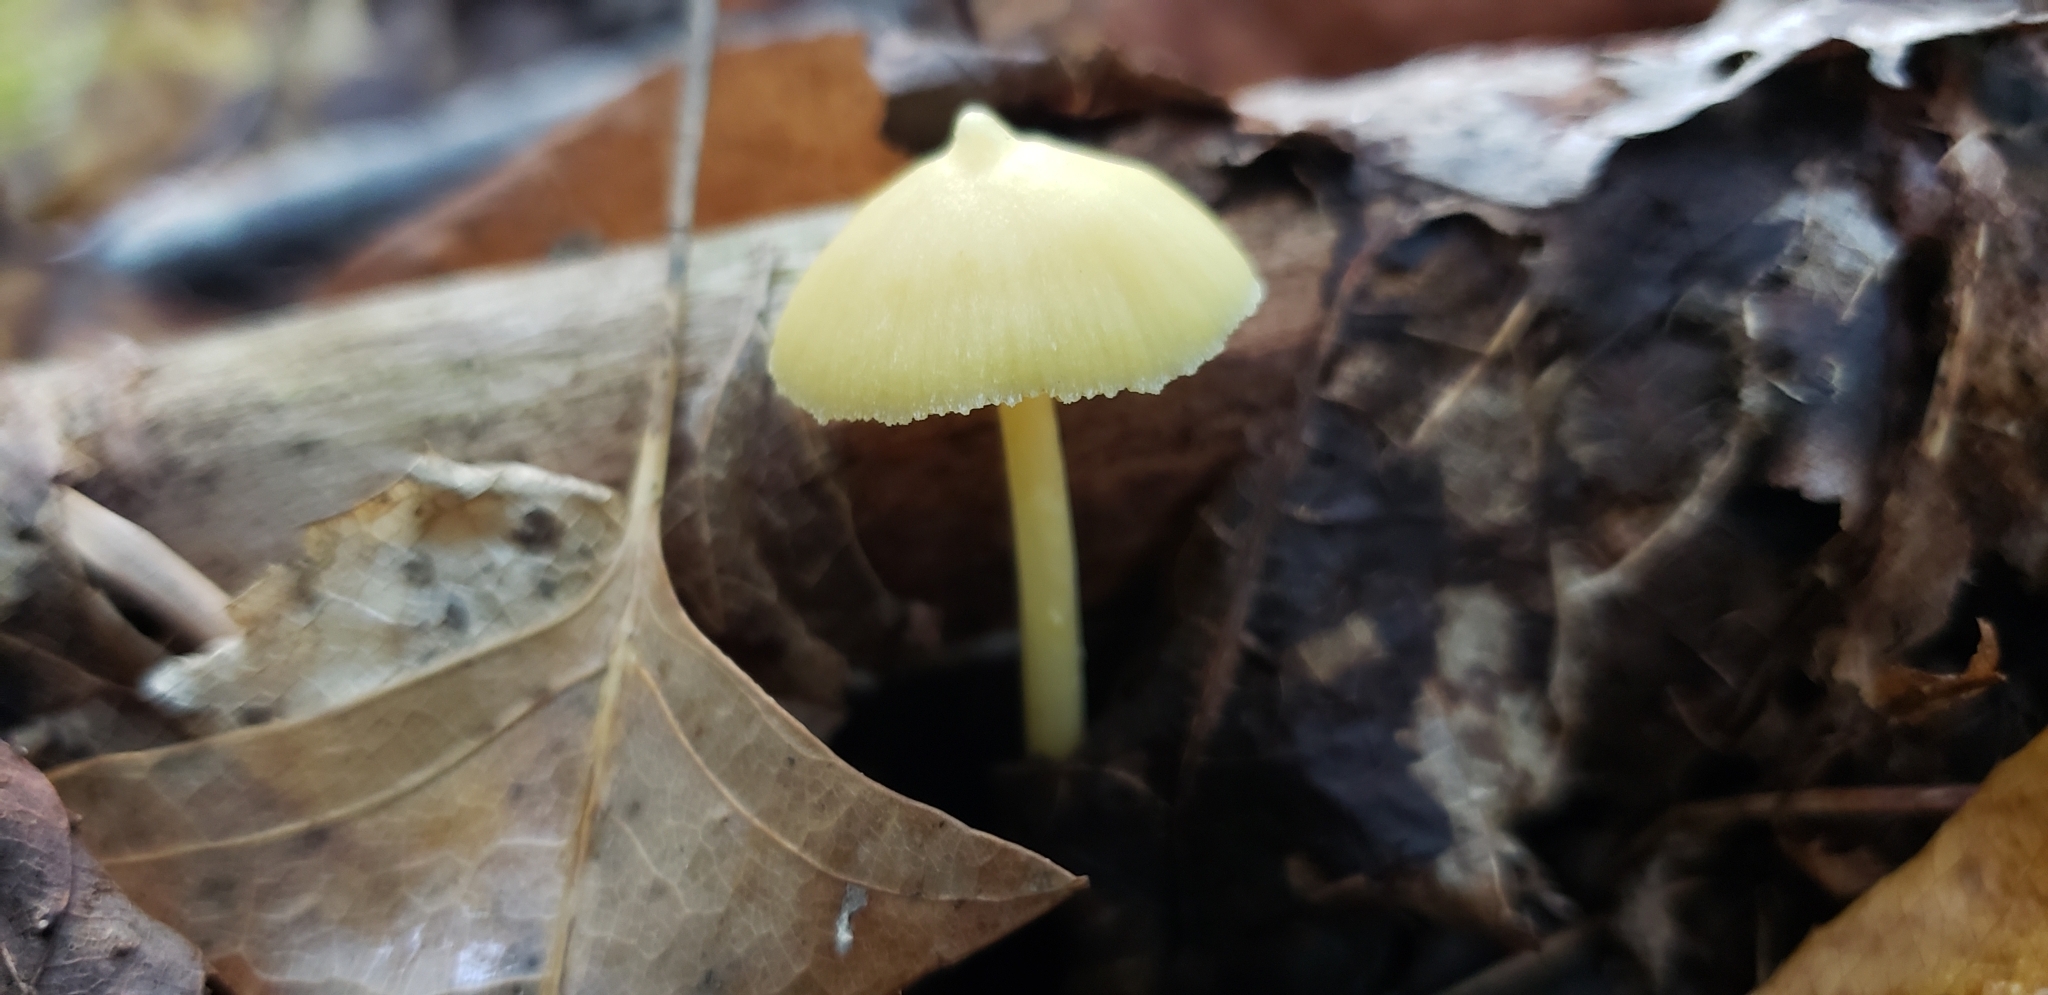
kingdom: Fungi
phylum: Basidiomycota
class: Agaricomycetes
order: Agaricales
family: Entolomataceae
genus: Entoloma
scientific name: Entoloma murrayi
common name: Yellow unicorn entoloma
